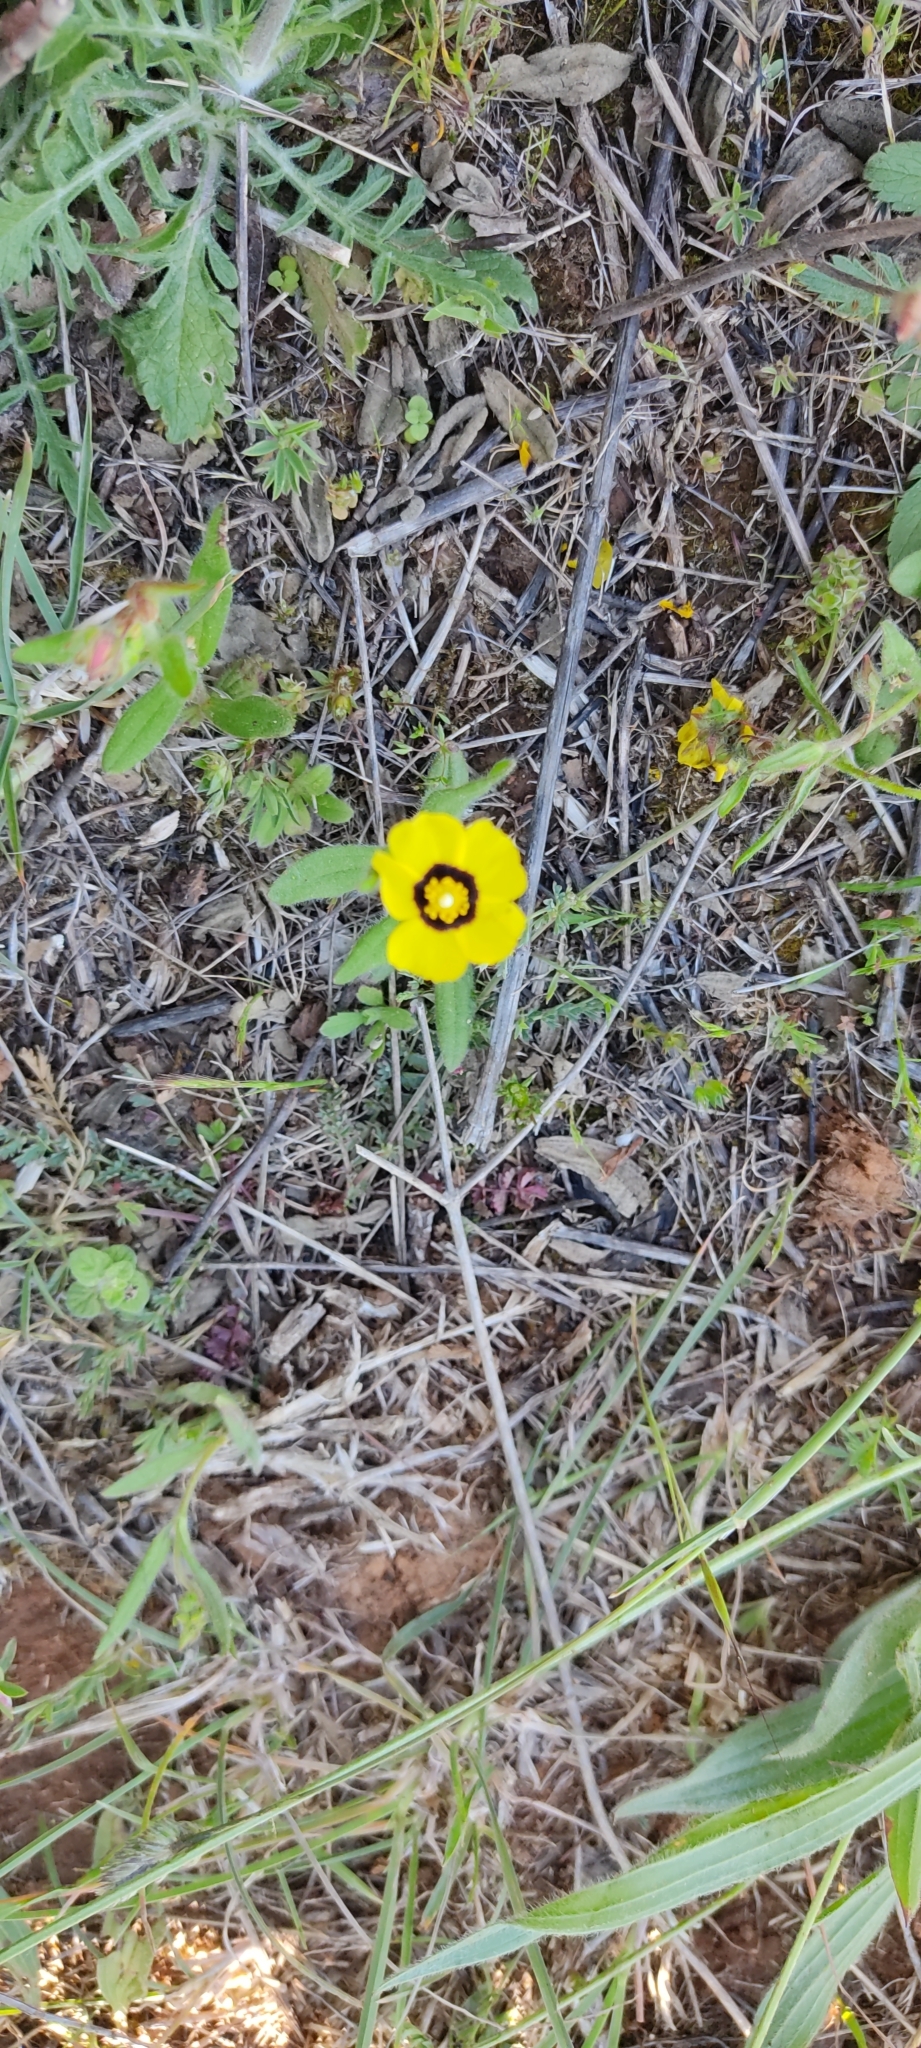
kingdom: Plantae
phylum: Tracheophyta
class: Magnoliopsida
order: Malvales
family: Cistaceae
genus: Tuberaria
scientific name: Tuberaria guttata
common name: Spotted rock-rose
